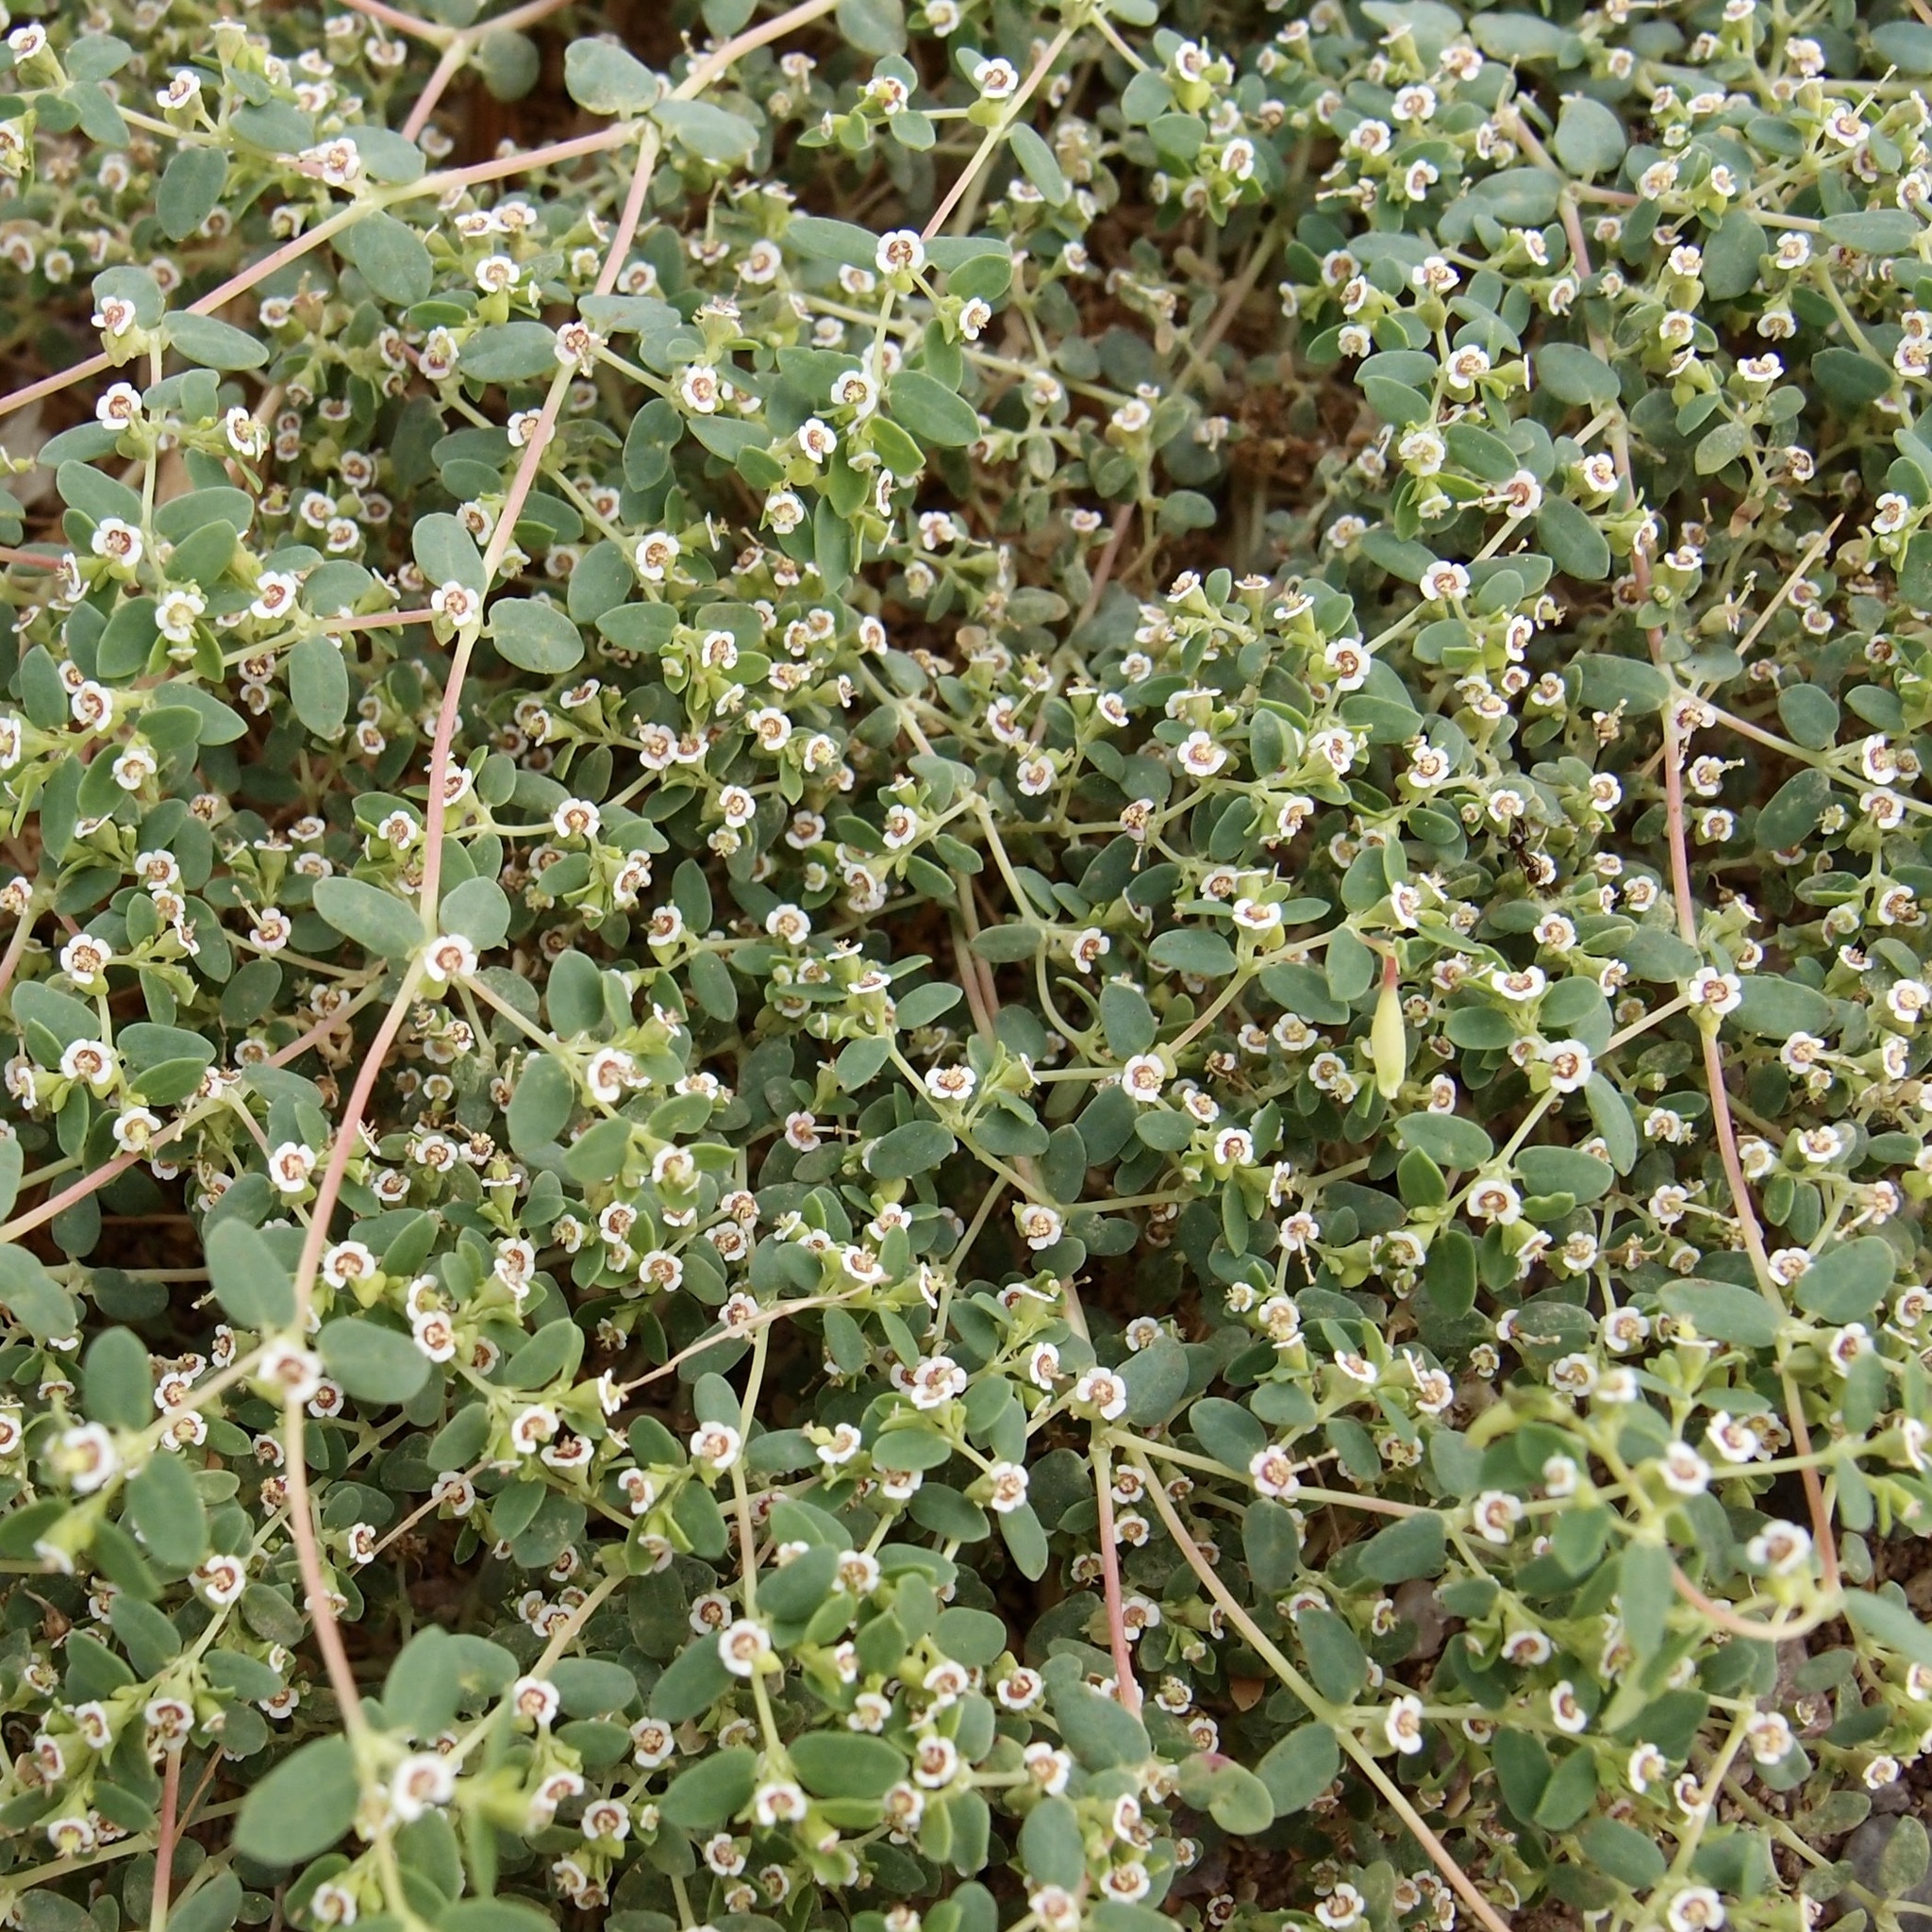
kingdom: Plantae
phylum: Tracheophyta
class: Magnoliopsida
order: Malpighiales
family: Euphorbiaceae
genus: Euphorbia
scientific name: Euphorbia polycarpa
